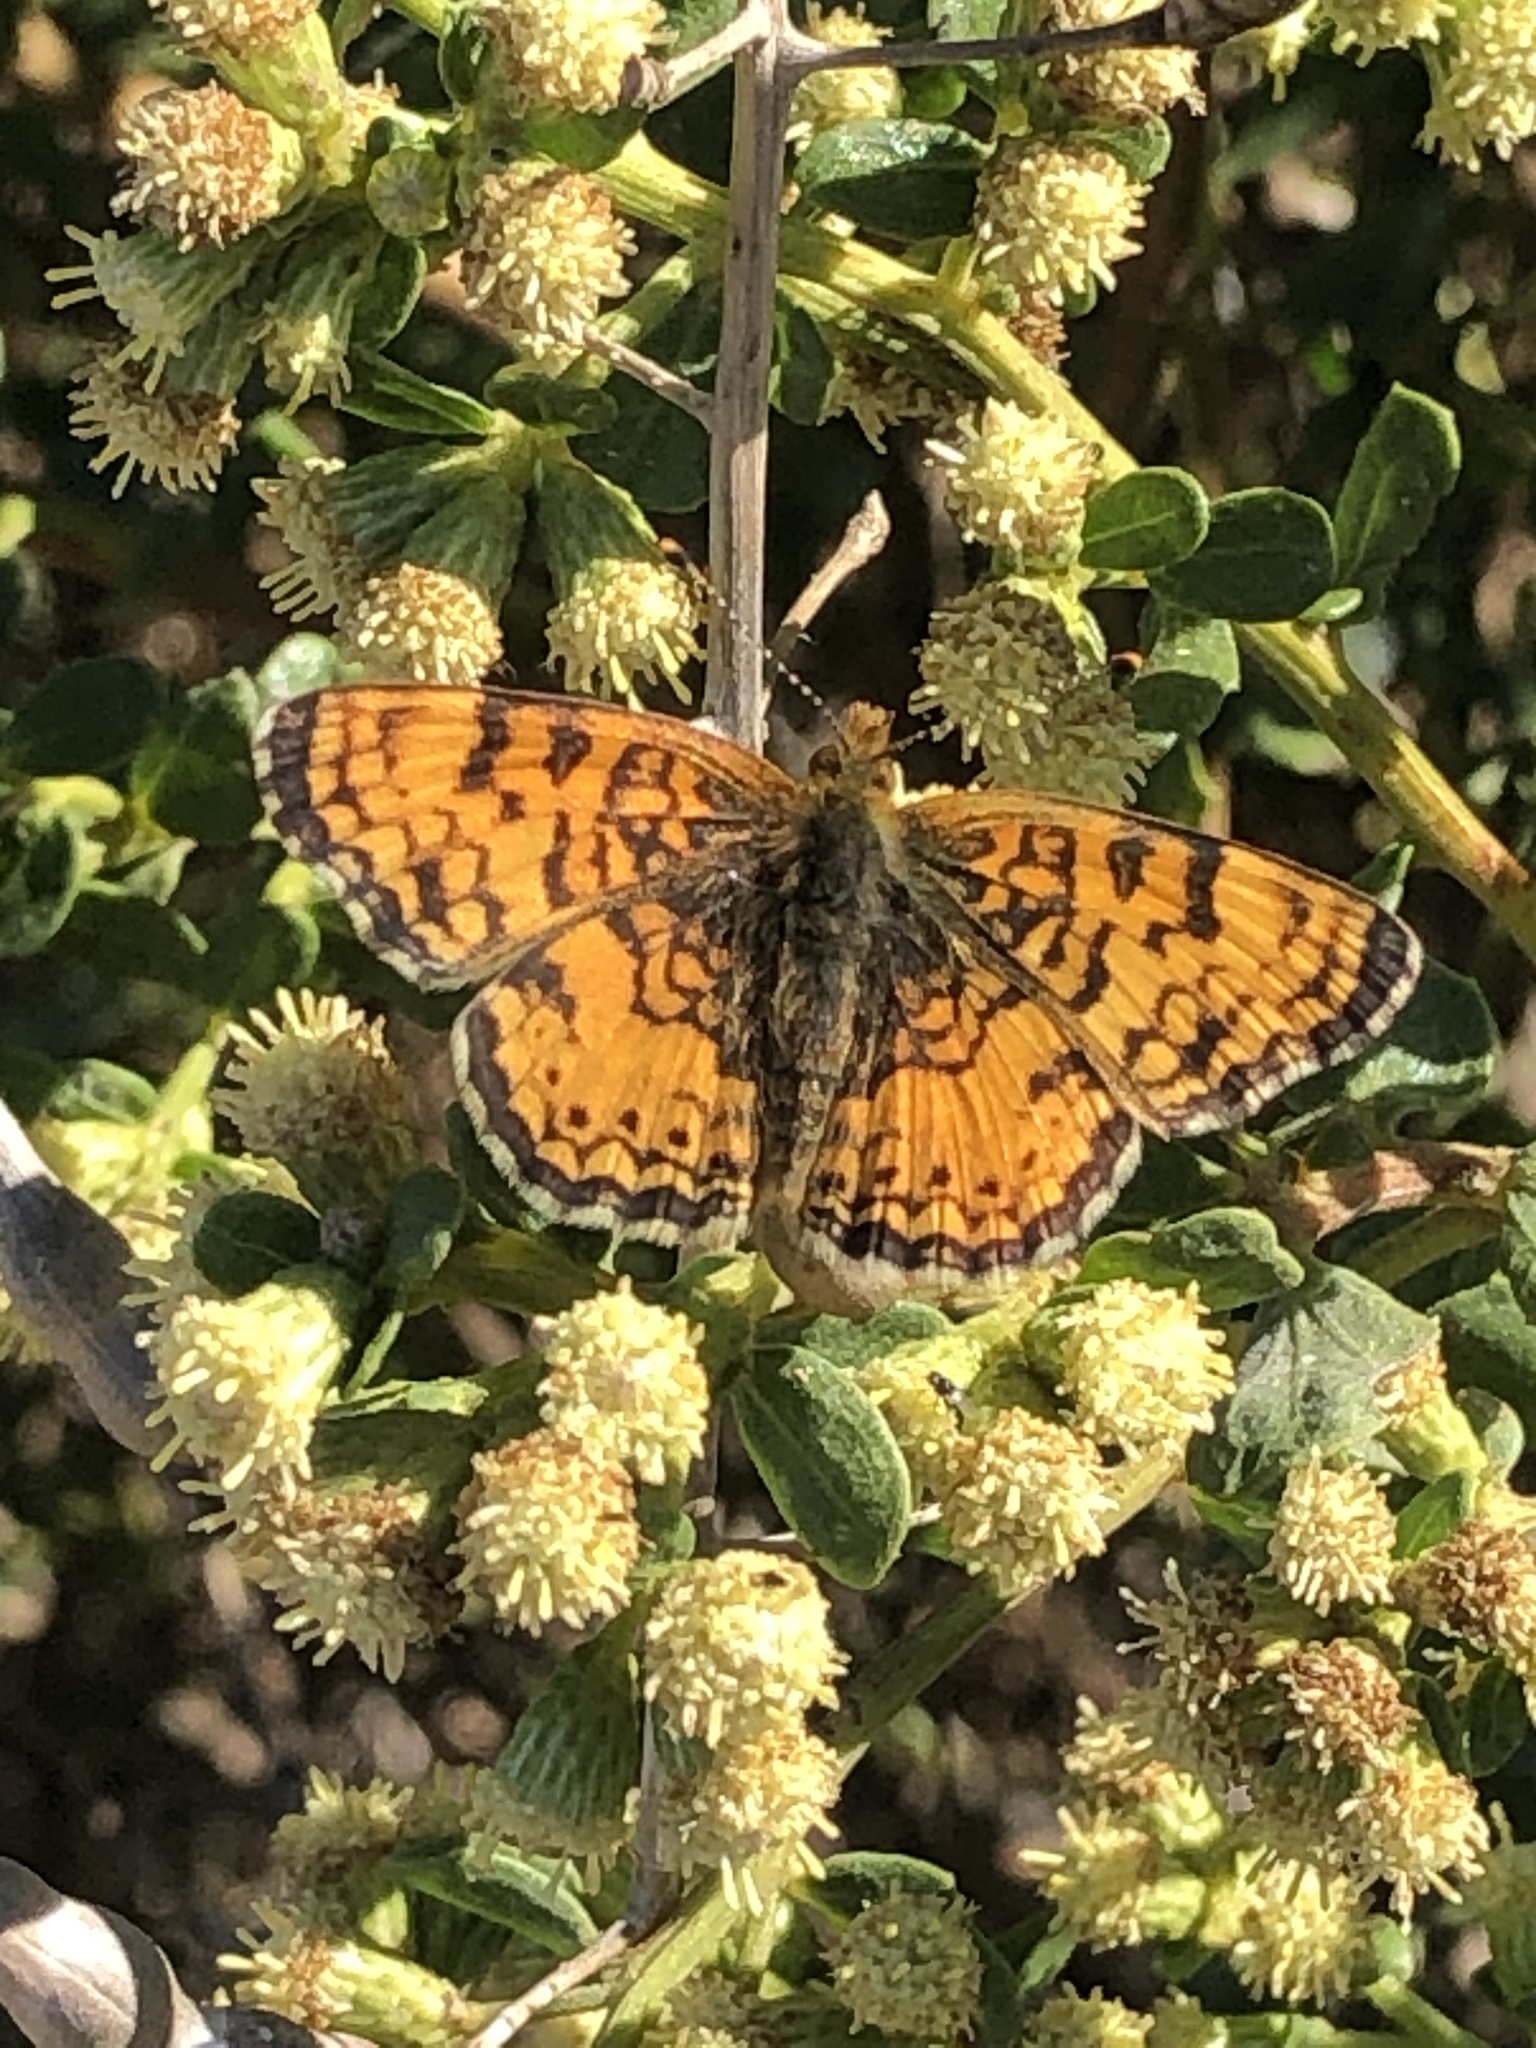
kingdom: Animalia
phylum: Arthropoda
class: Insecta
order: Lepidoptera
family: Nymphalidae
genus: Eresia
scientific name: Eresia aveyrona
